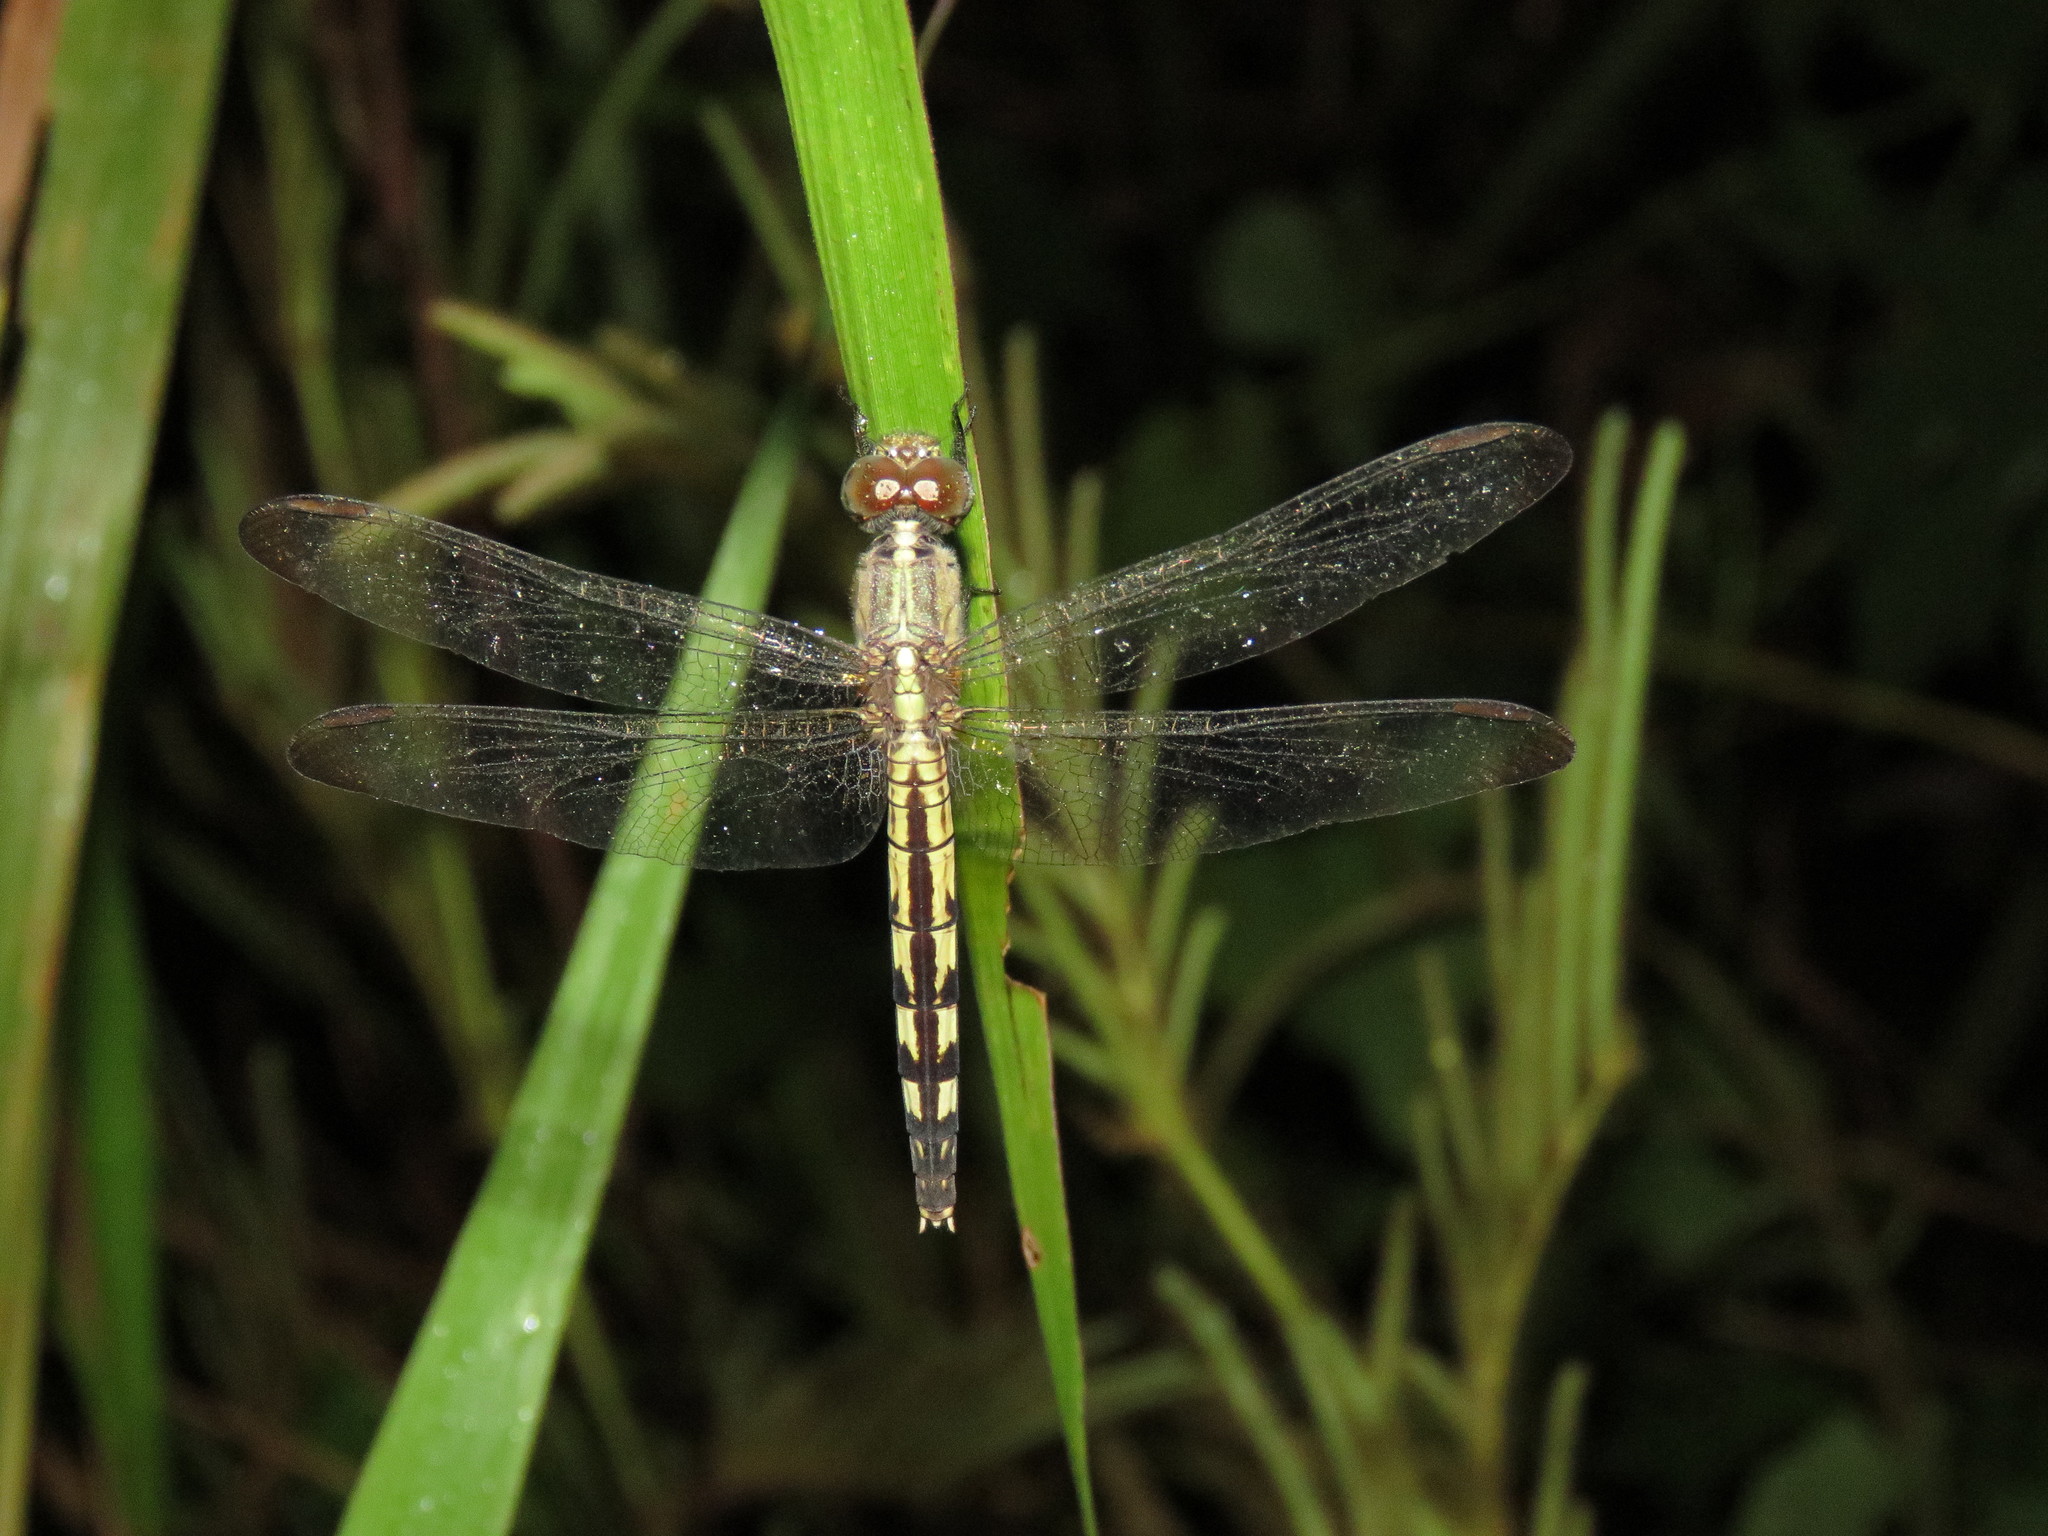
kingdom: Animalia
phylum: Arthropoda
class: Insecta
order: Odonata
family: Libellulidae
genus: Erythrodiplax
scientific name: Erythrodiplax umbrata
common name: Band-winged dragonlet
